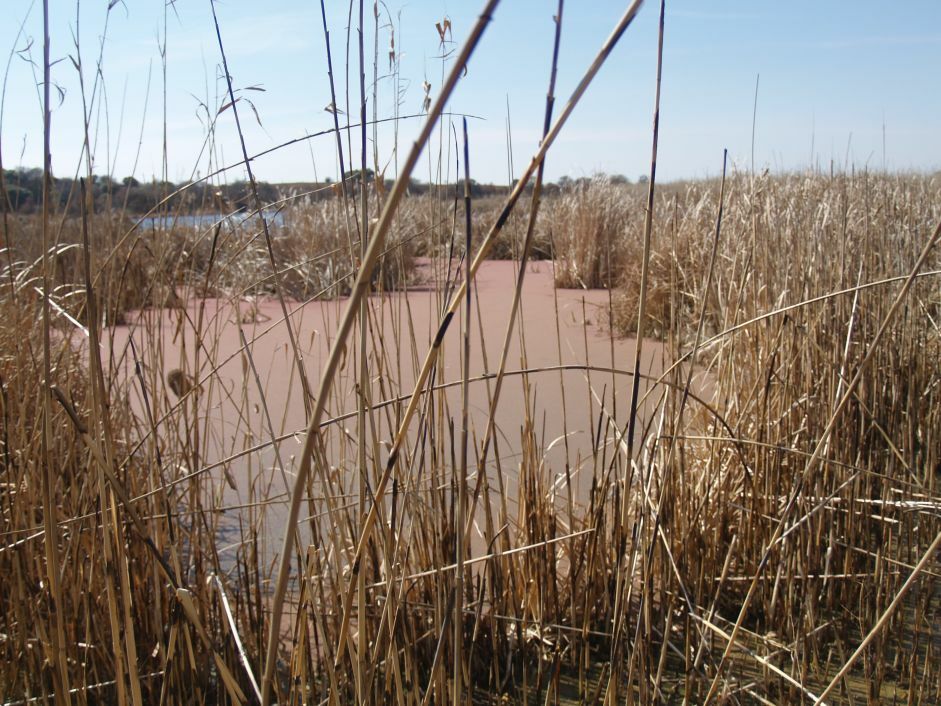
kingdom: Plantae
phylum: Tracheophyta
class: Liliopsida
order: Poales
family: Poaceae
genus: Phragmites
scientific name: Phragmites mauritianus
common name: Reed grass
